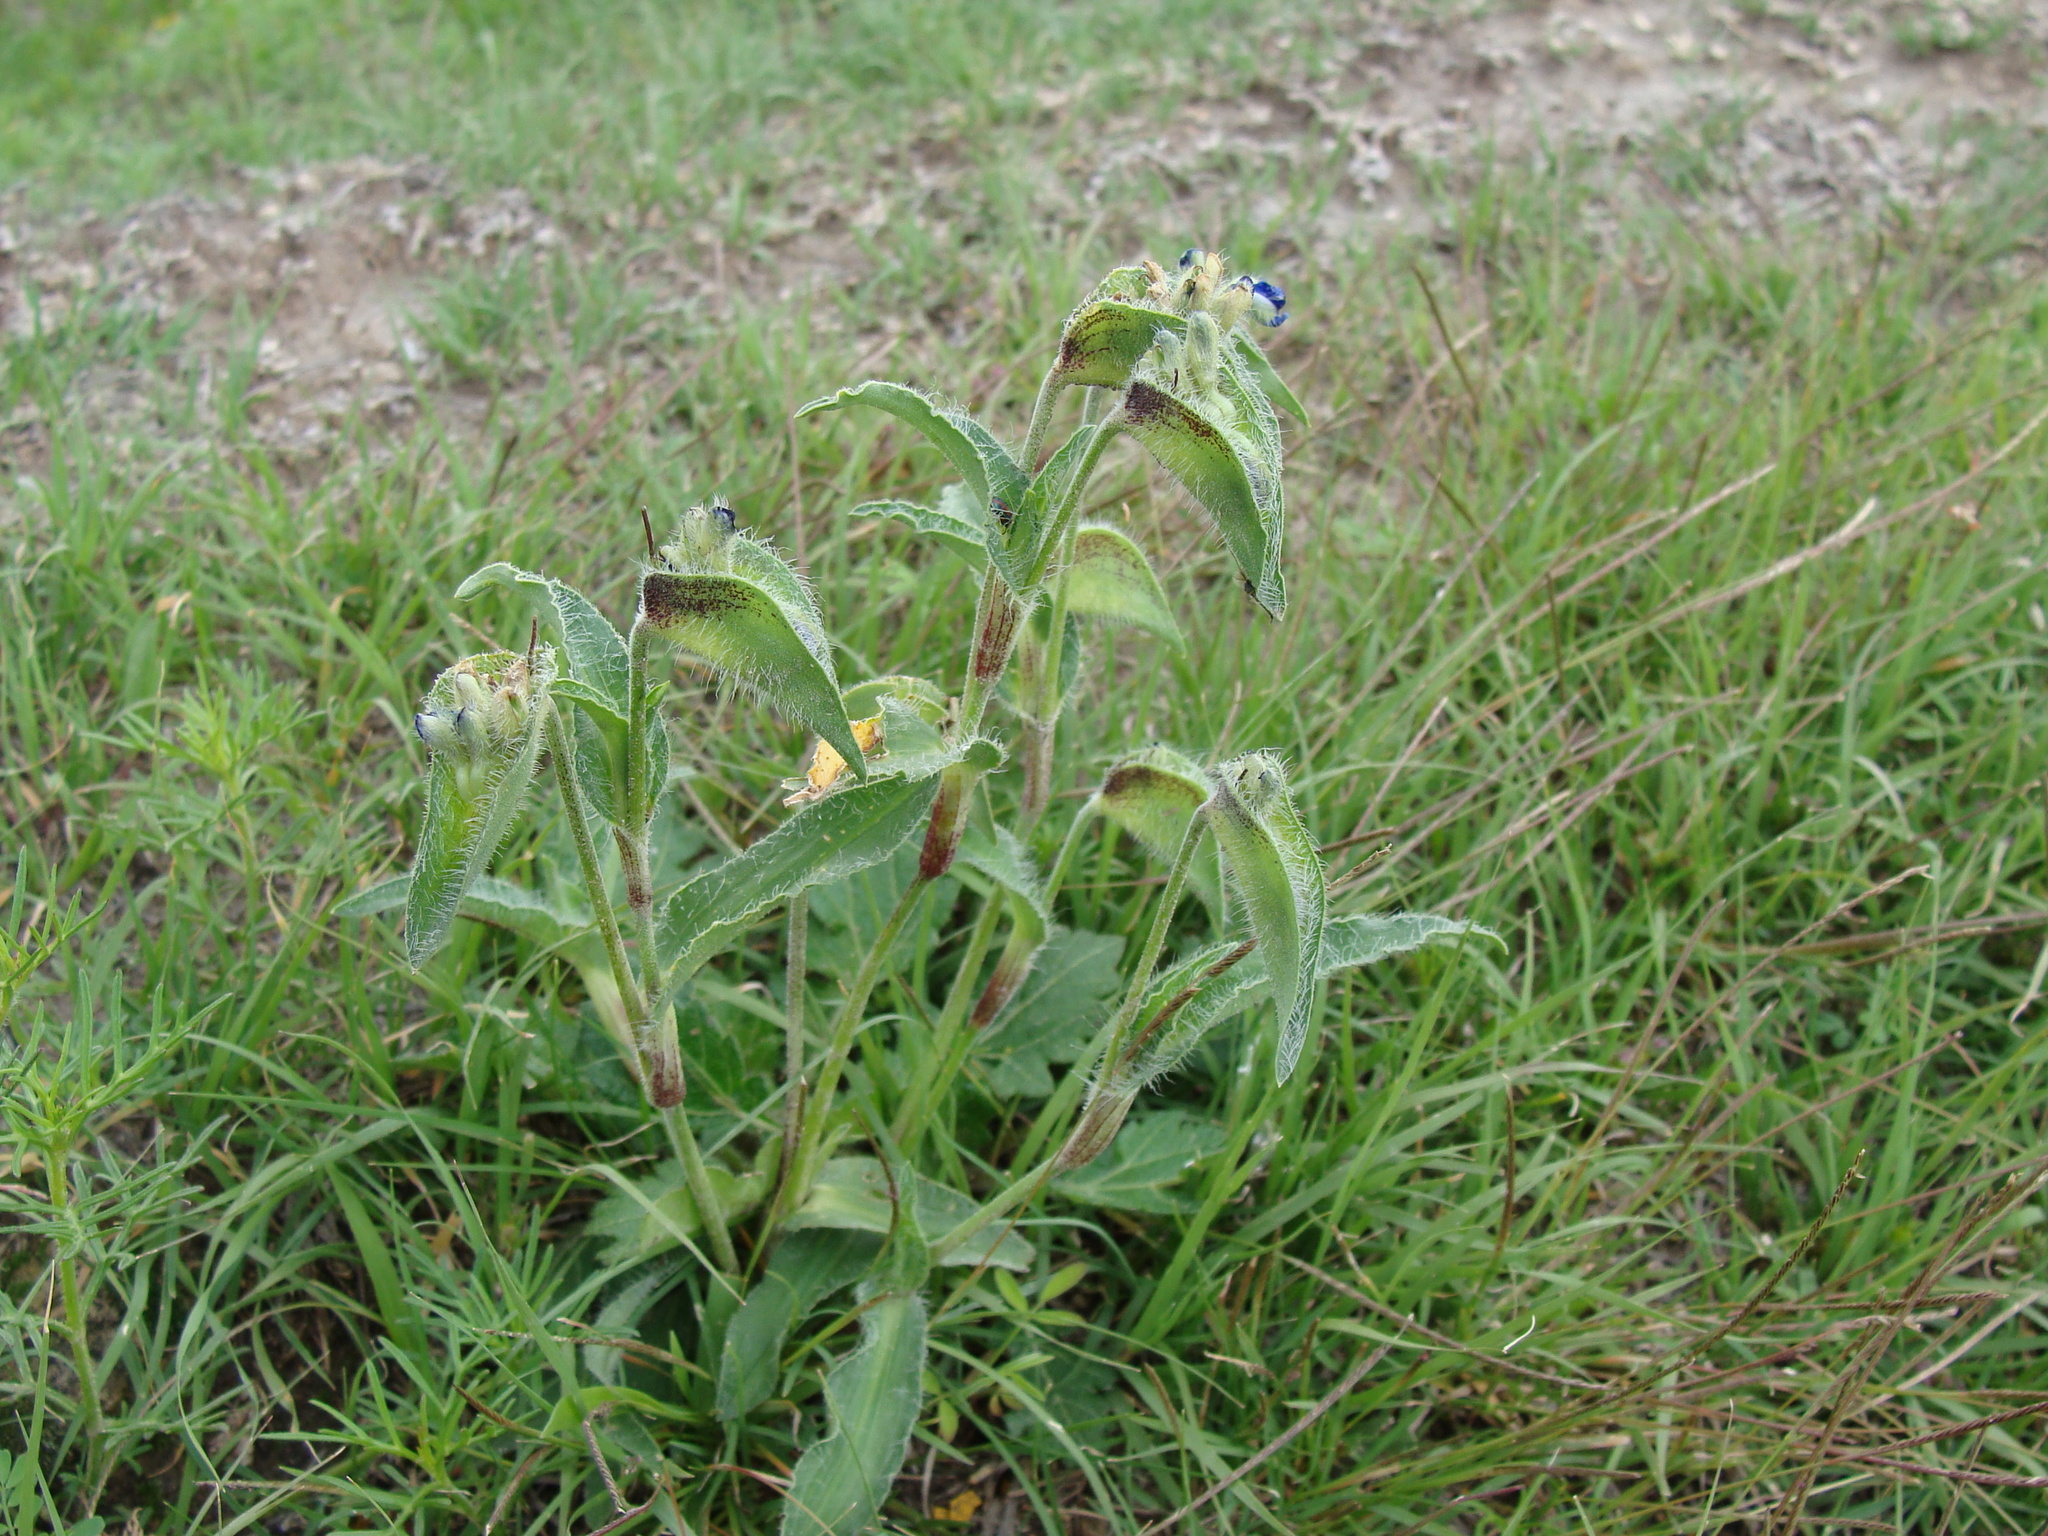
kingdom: Plantae
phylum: Tracheophyta
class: Liliopsida
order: Commelinales
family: Commelinaceae
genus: Commelina
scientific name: Commelina tuberosa
